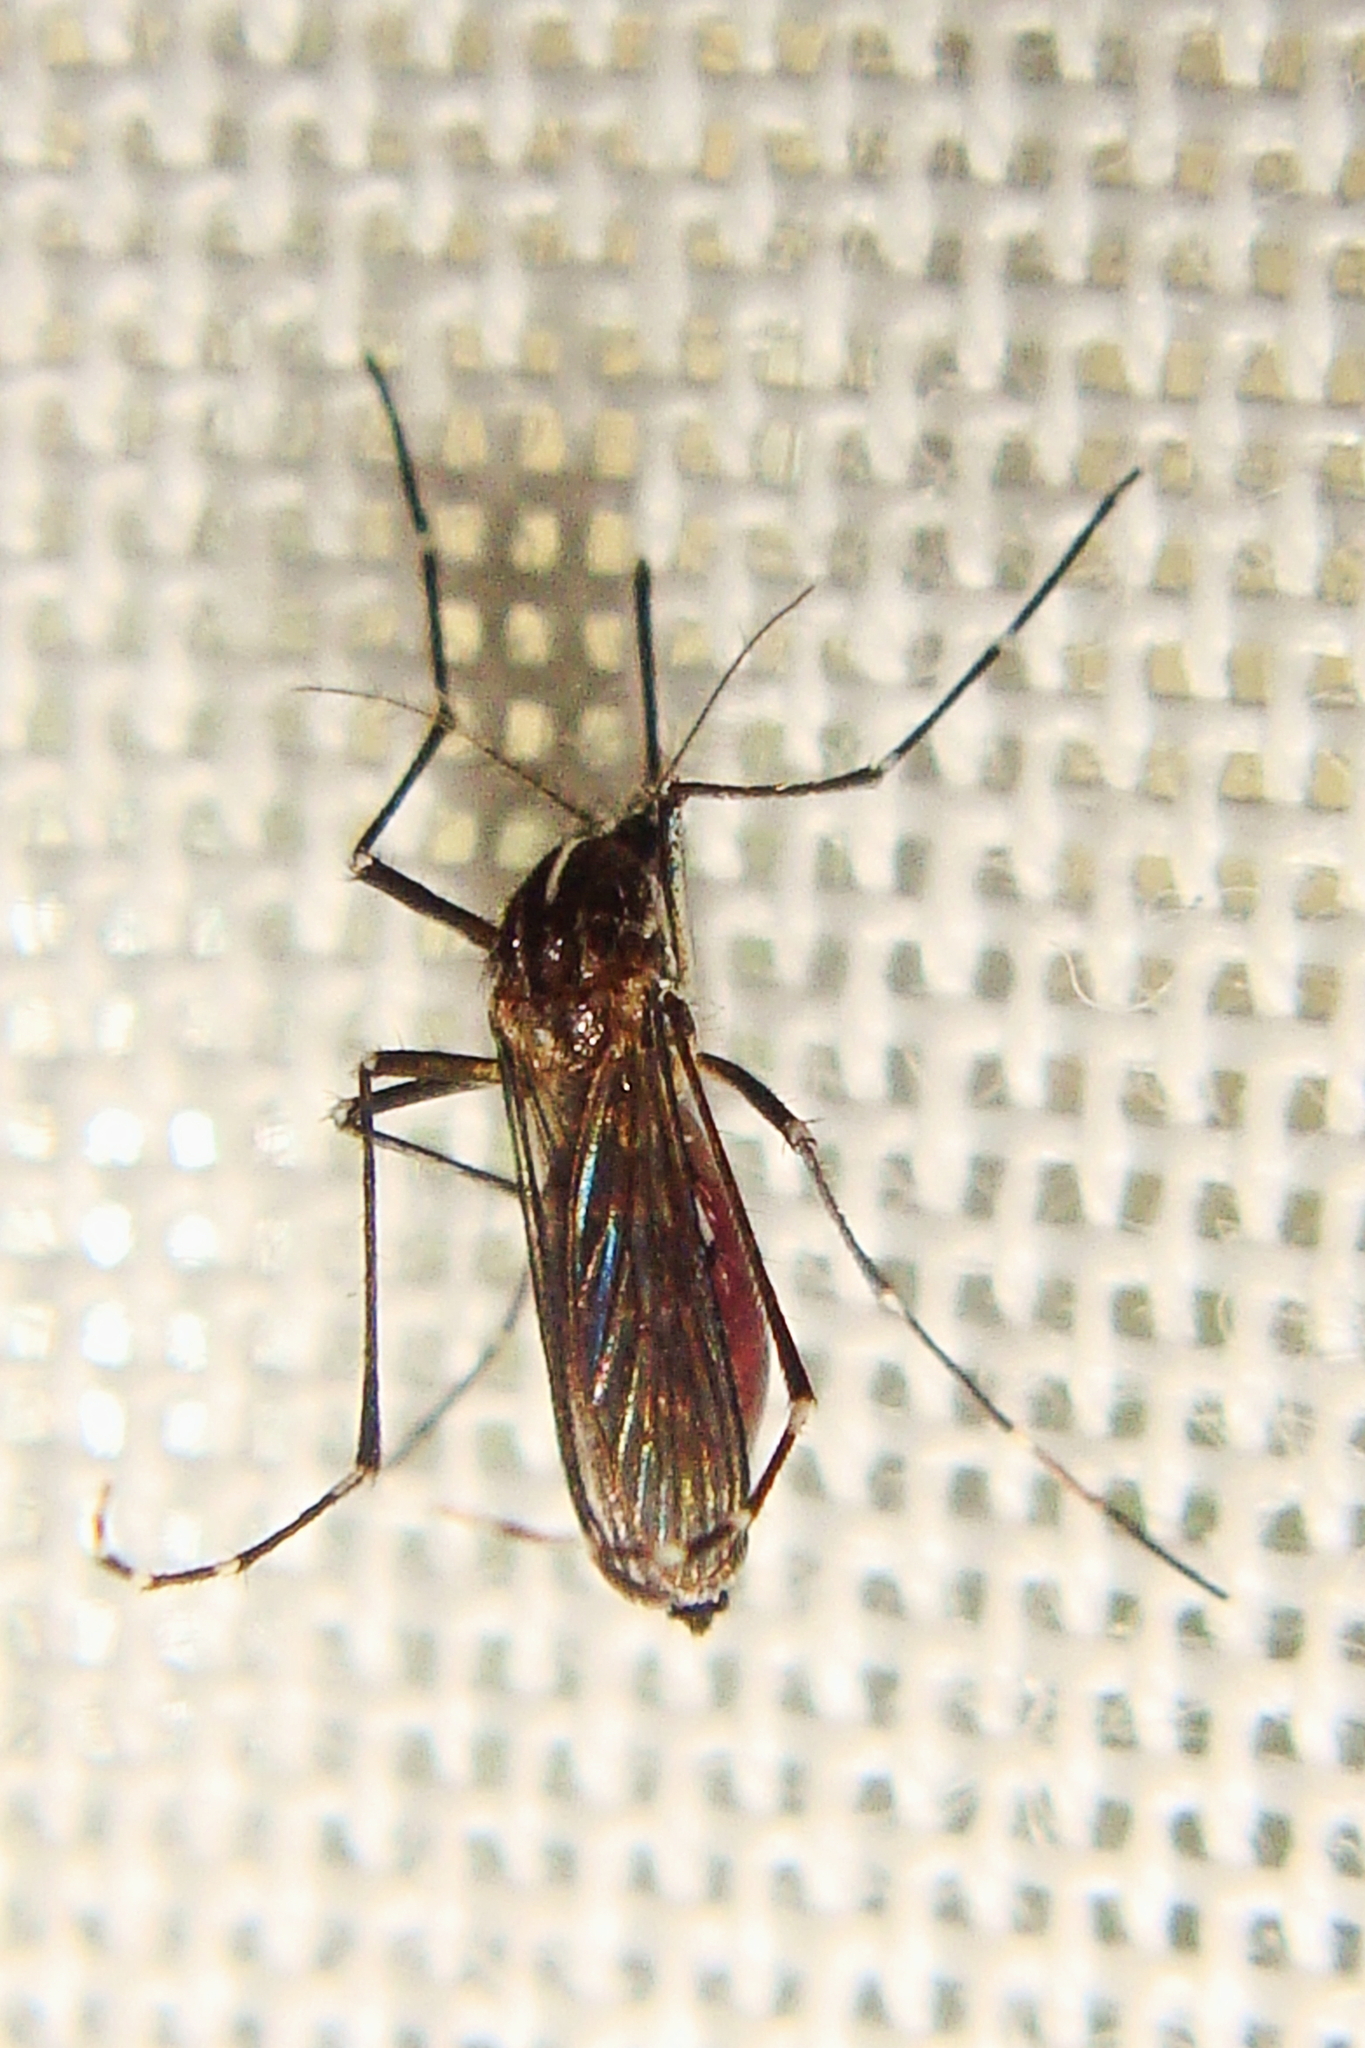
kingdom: Animalia
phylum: Arthropoda
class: Insecta
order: Diptera
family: Culicidae
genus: Aedes
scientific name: Aedes albopictus
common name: Tiger mosquito
